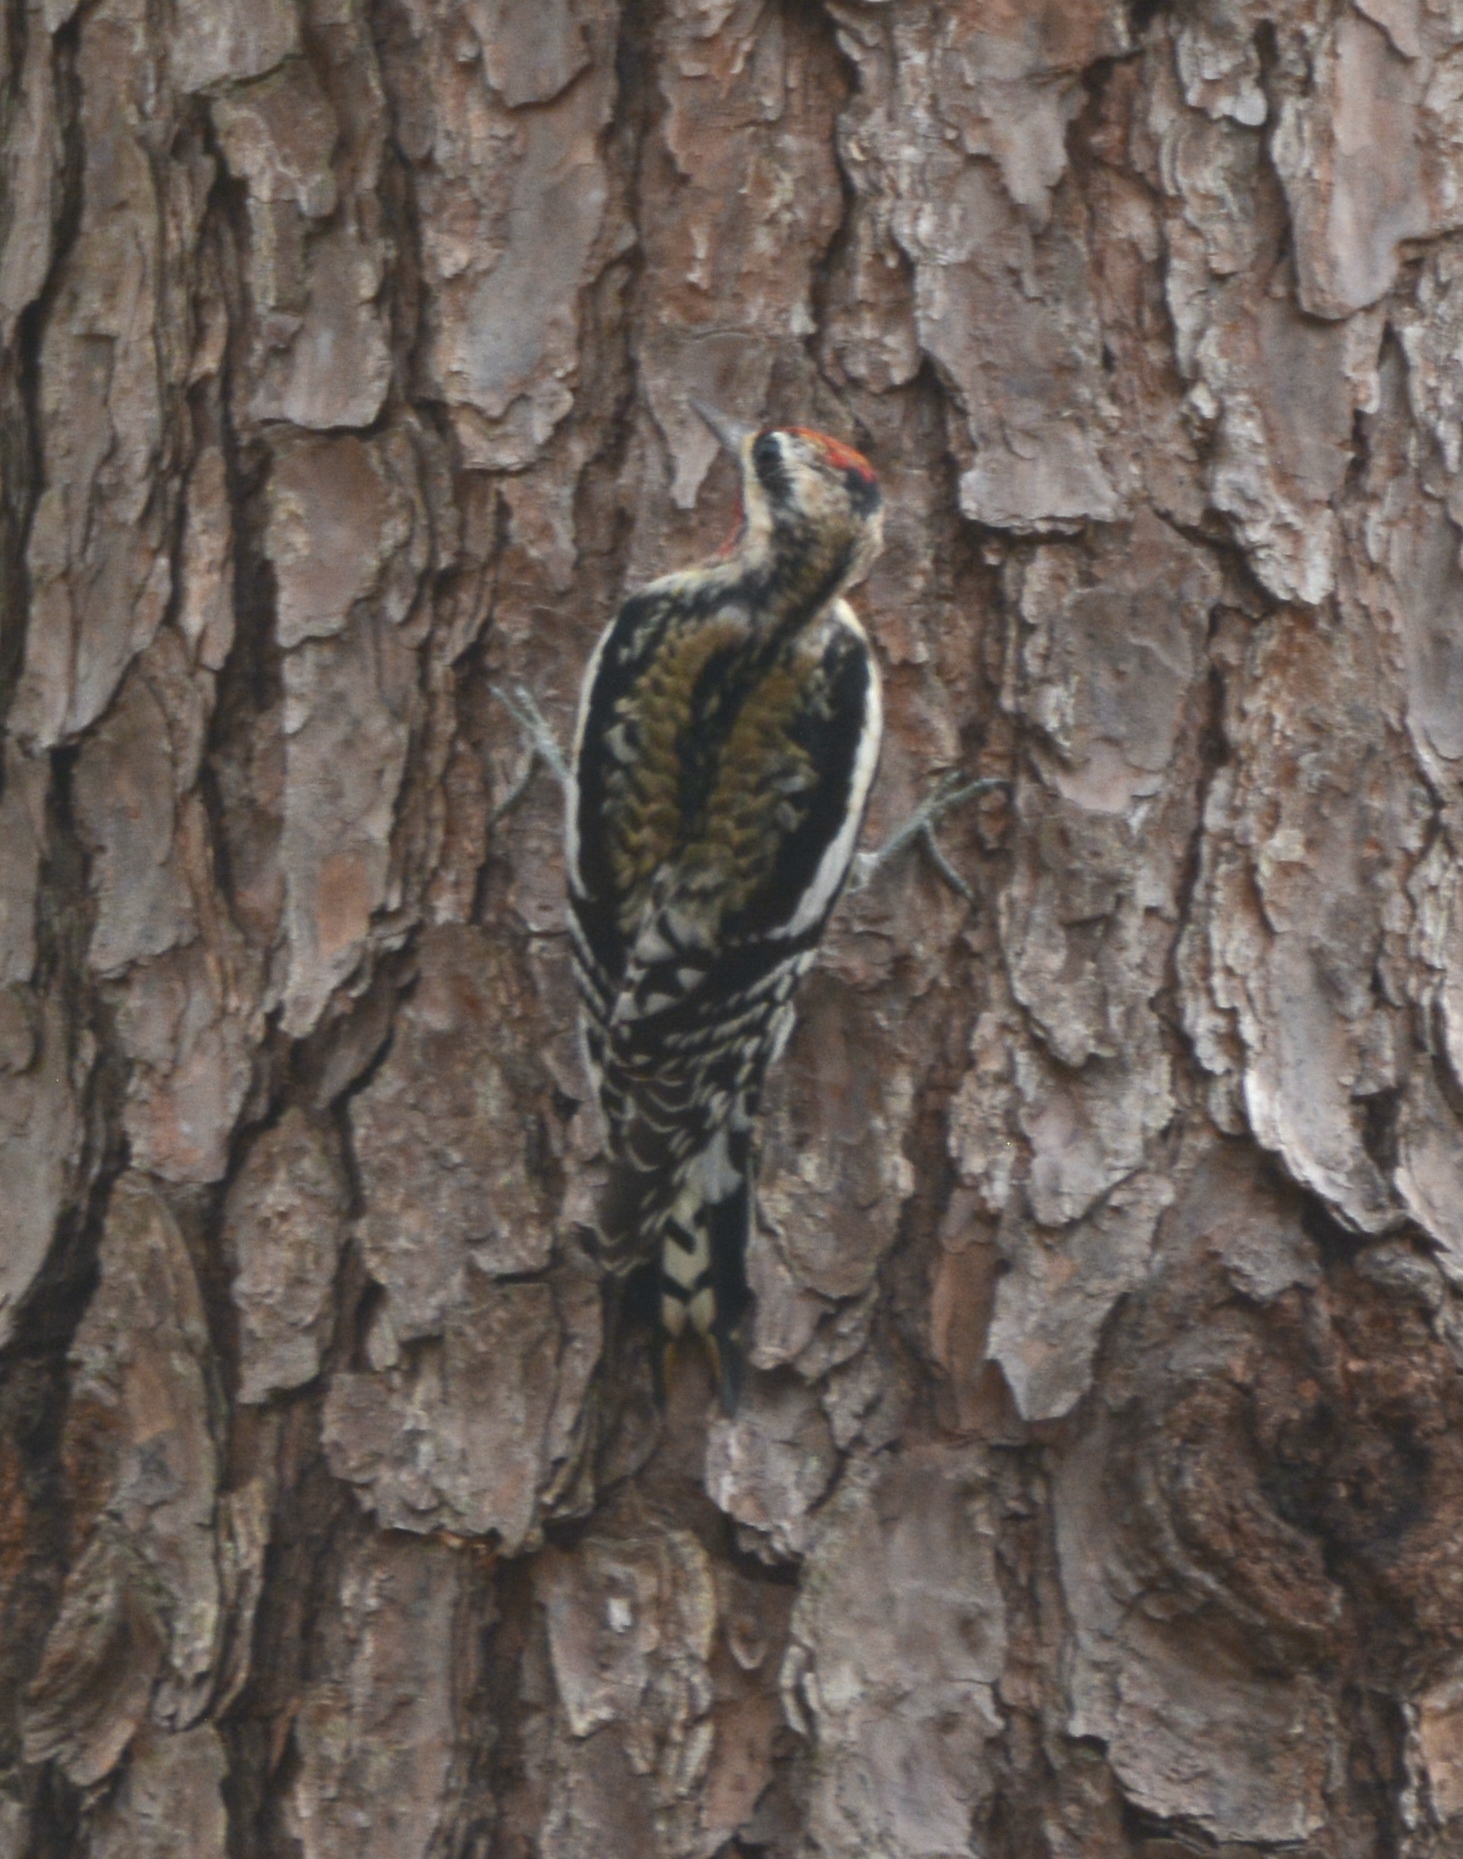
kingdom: Animalia
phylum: Chordata
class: Aves
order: Piciformes
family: Picidae
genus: Sphyrapicus
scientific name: Sphyrapicus varius
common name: Yellow-bellied sapsucker
